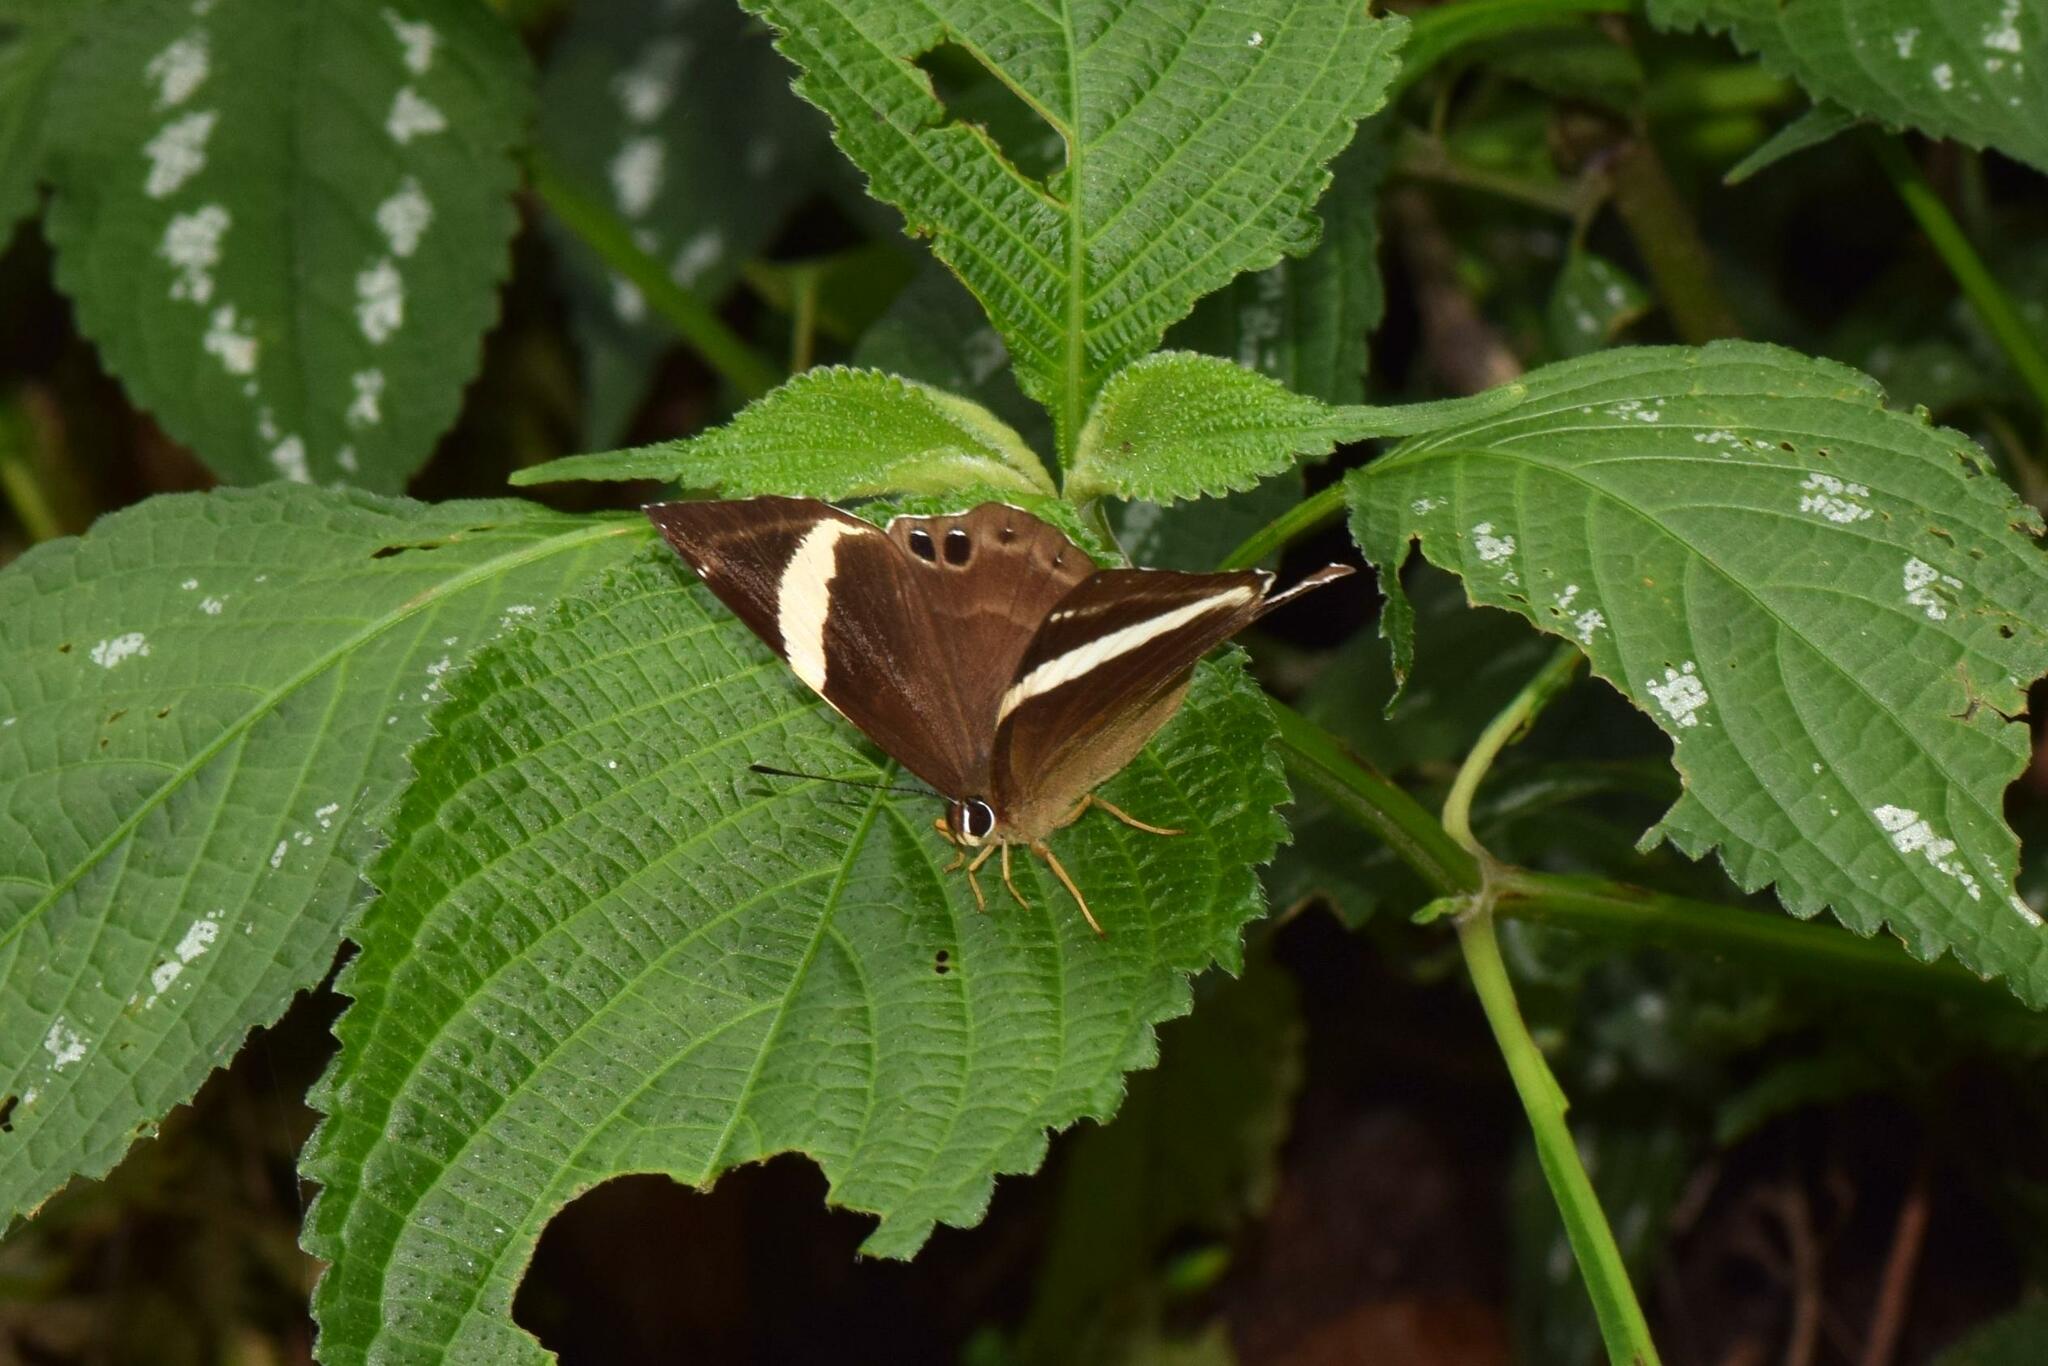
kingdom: Animalia
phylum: Arthropoda
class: Insecta
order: Lepidoptera
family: Lycaenidae
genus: Abisara
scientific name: Abisara fylla
